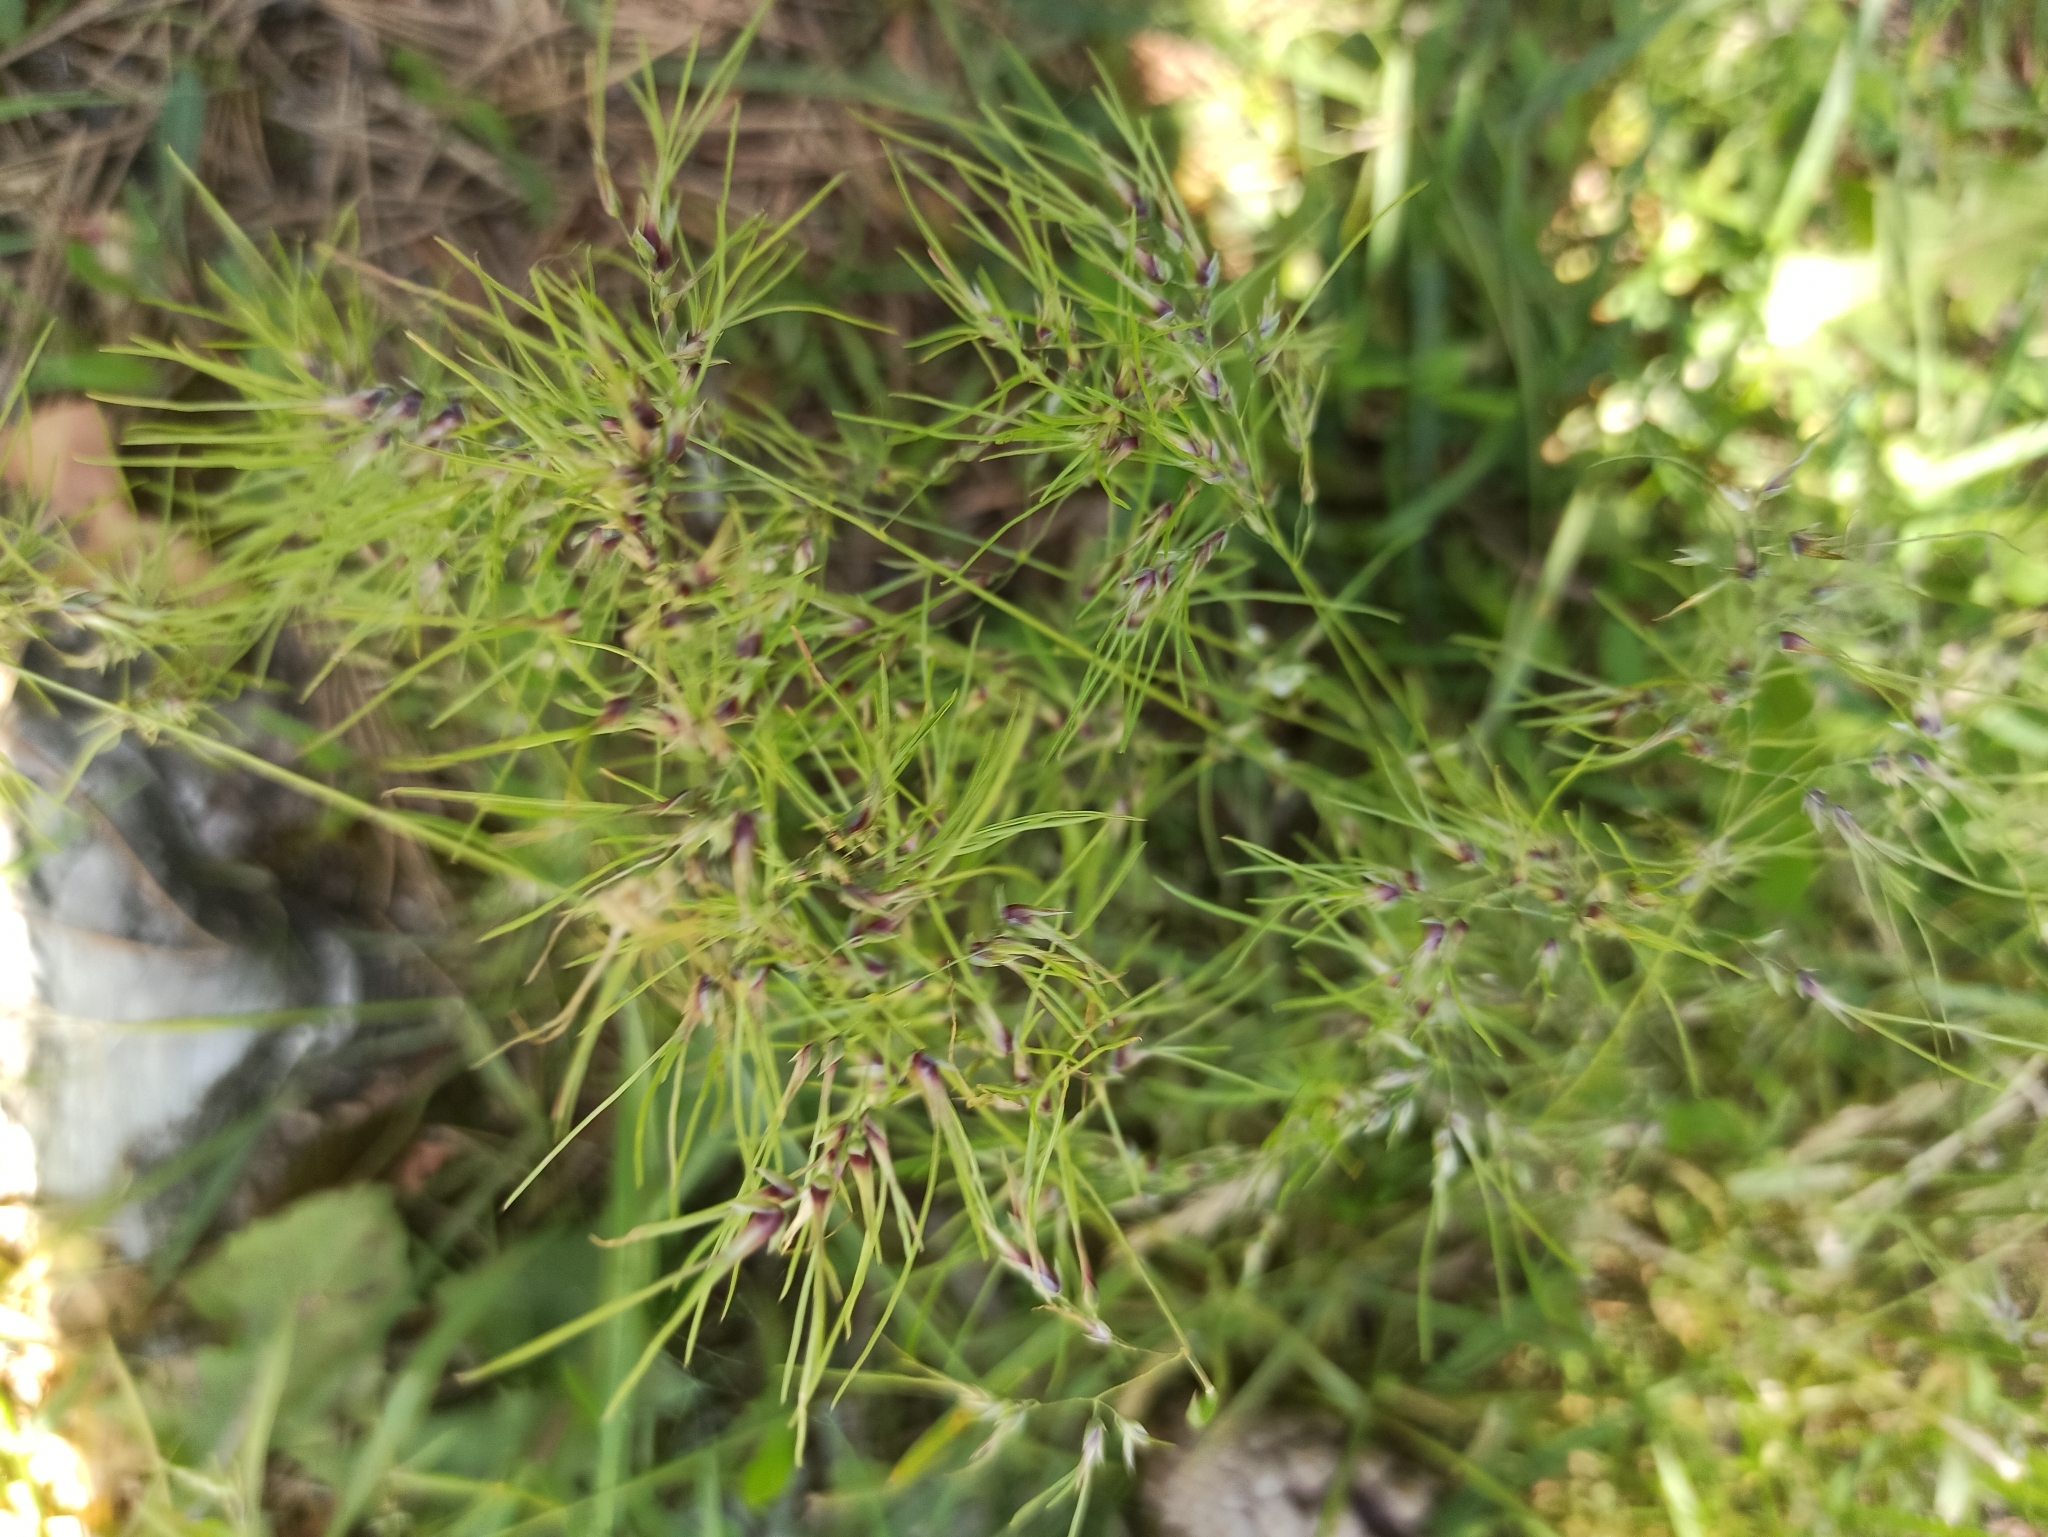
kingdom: Plantae
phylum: Tracheophyta
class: Liliopsida
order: Poales
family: Poaceae
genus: Poa
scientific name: Poa bulbosa
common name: Bulbous bluegrass
